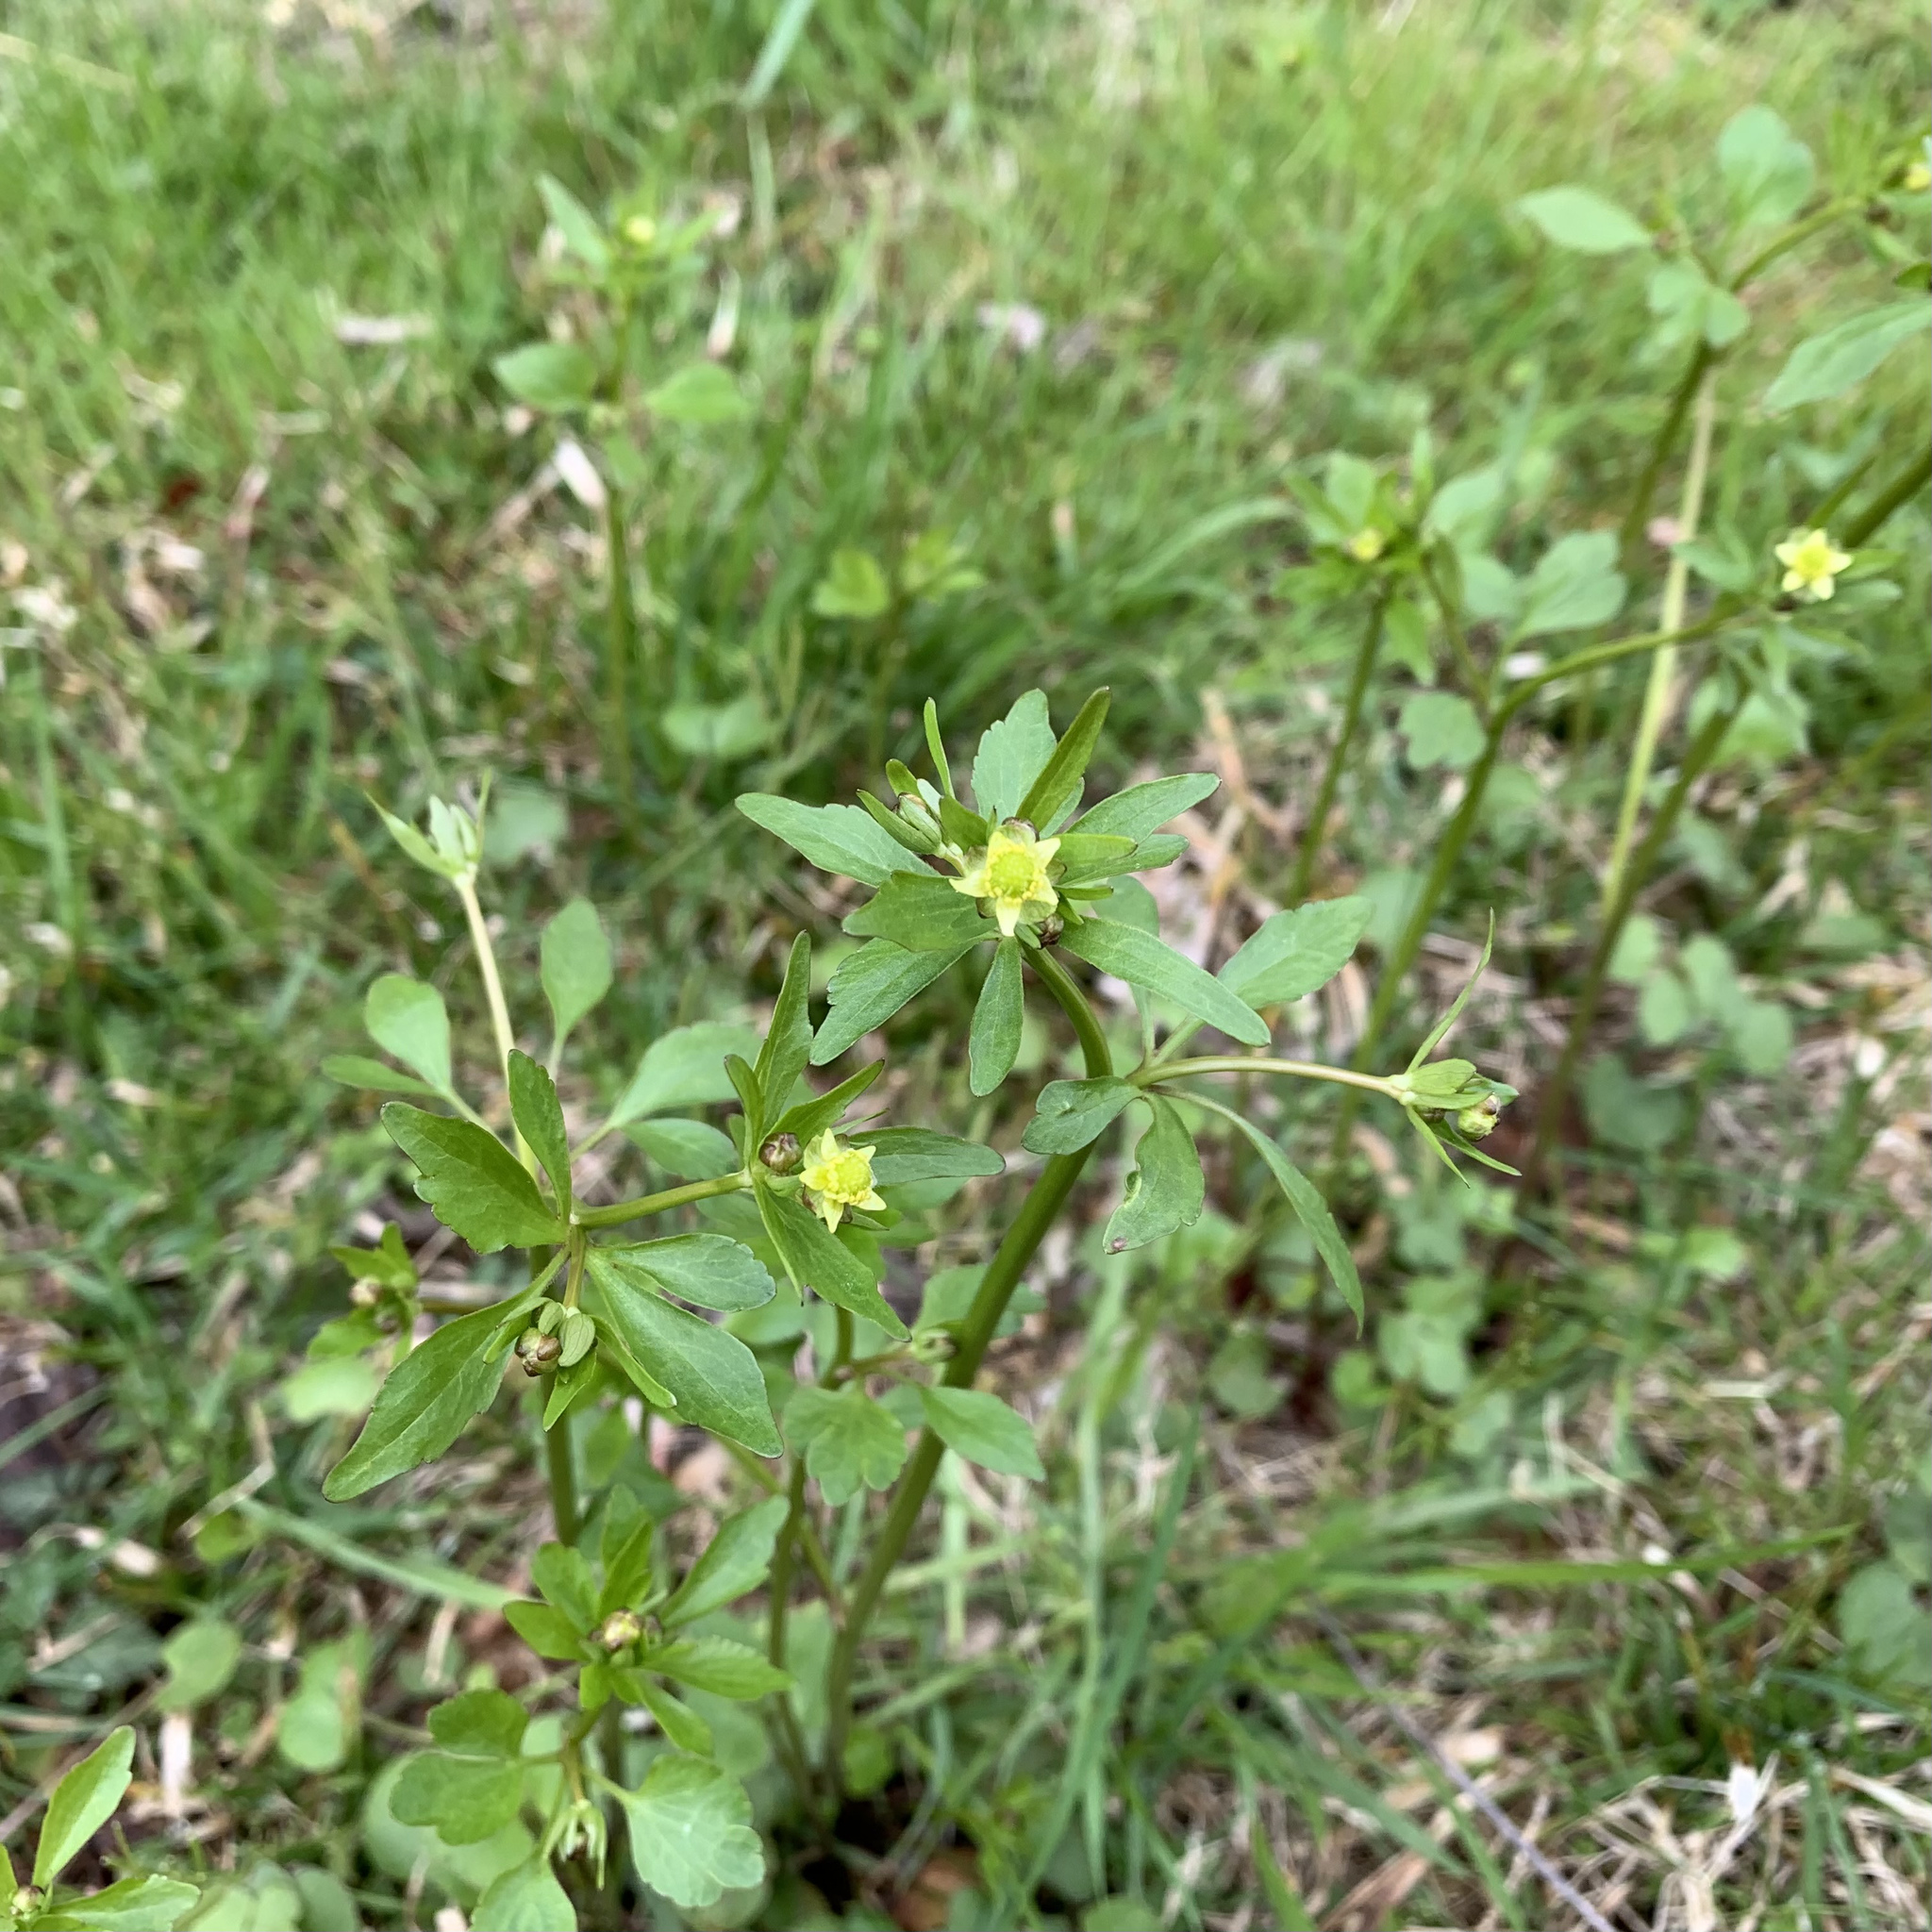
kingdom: Plantae
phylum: Tracheophyta
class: Magnoliopsida
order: Ranunculales
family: Ranunculaceae
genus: Ranunculus
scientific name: Ranunculus abortivus
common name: Early wood buttercup
